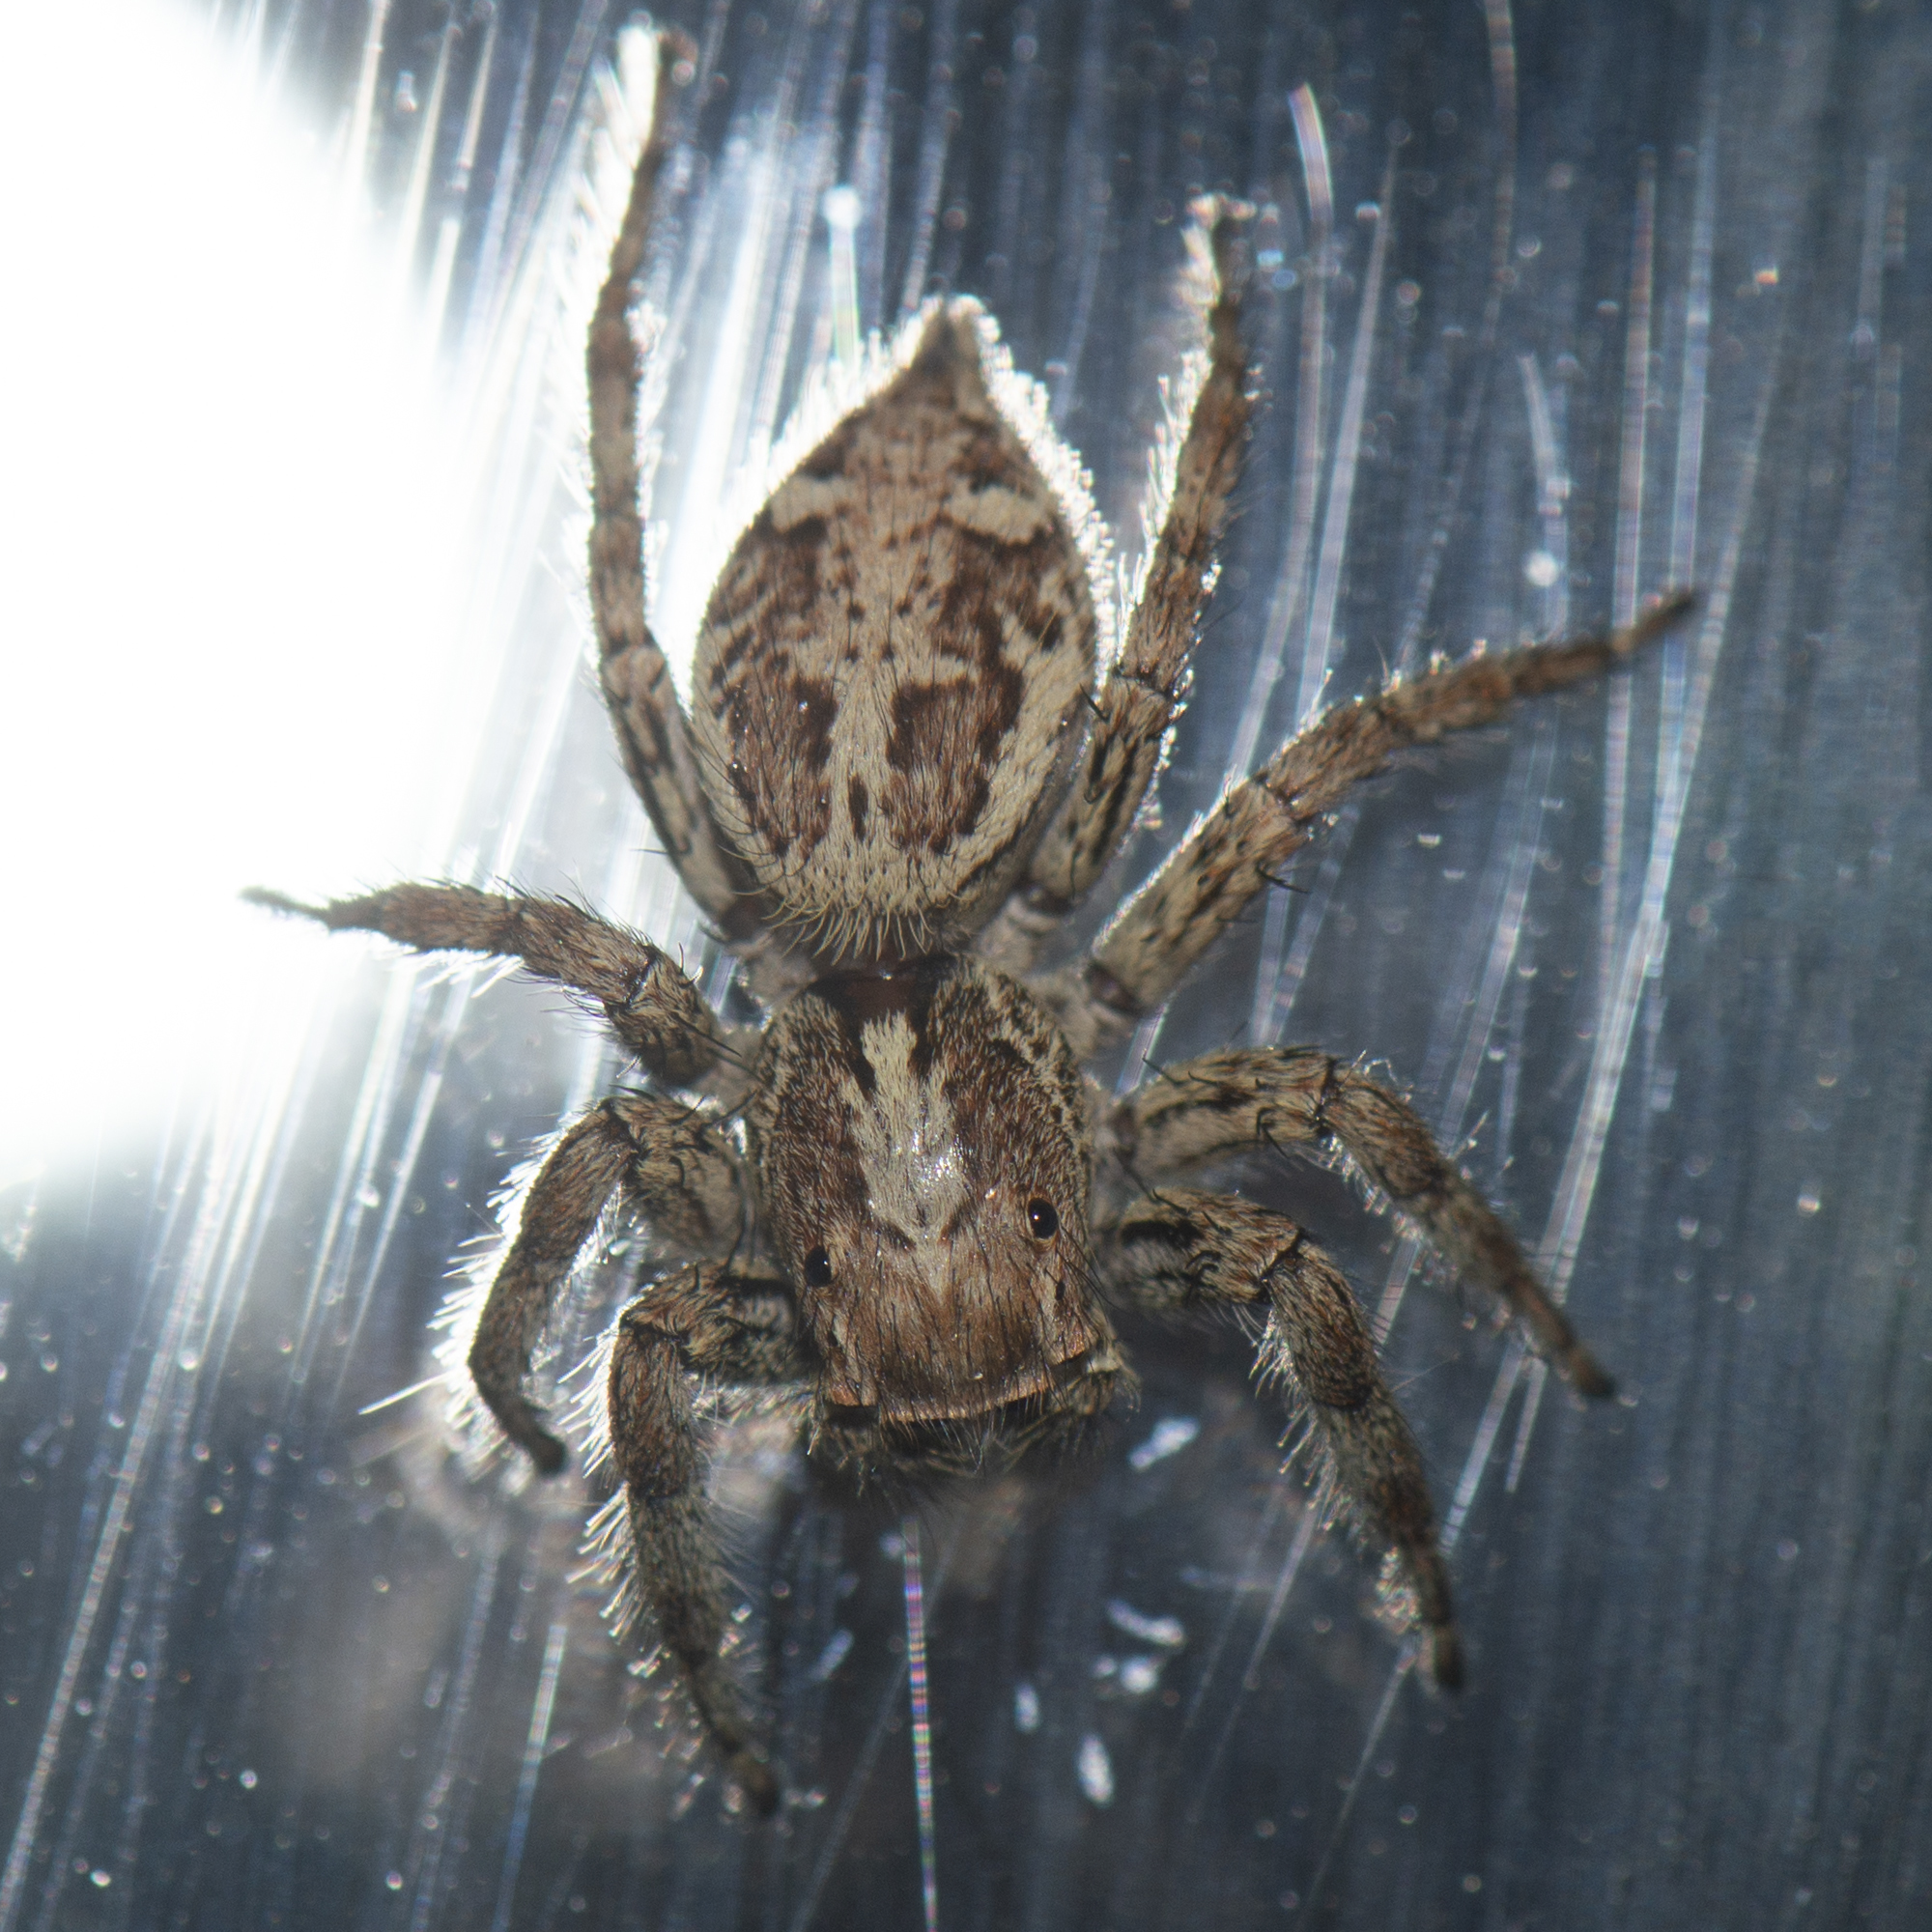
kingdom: Animalia
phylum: Arthropoda
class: Arachnida
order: Araneae
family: Salticidae
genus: Plexippus
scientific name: Plexippus paykulli
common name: Pantropical jumper
